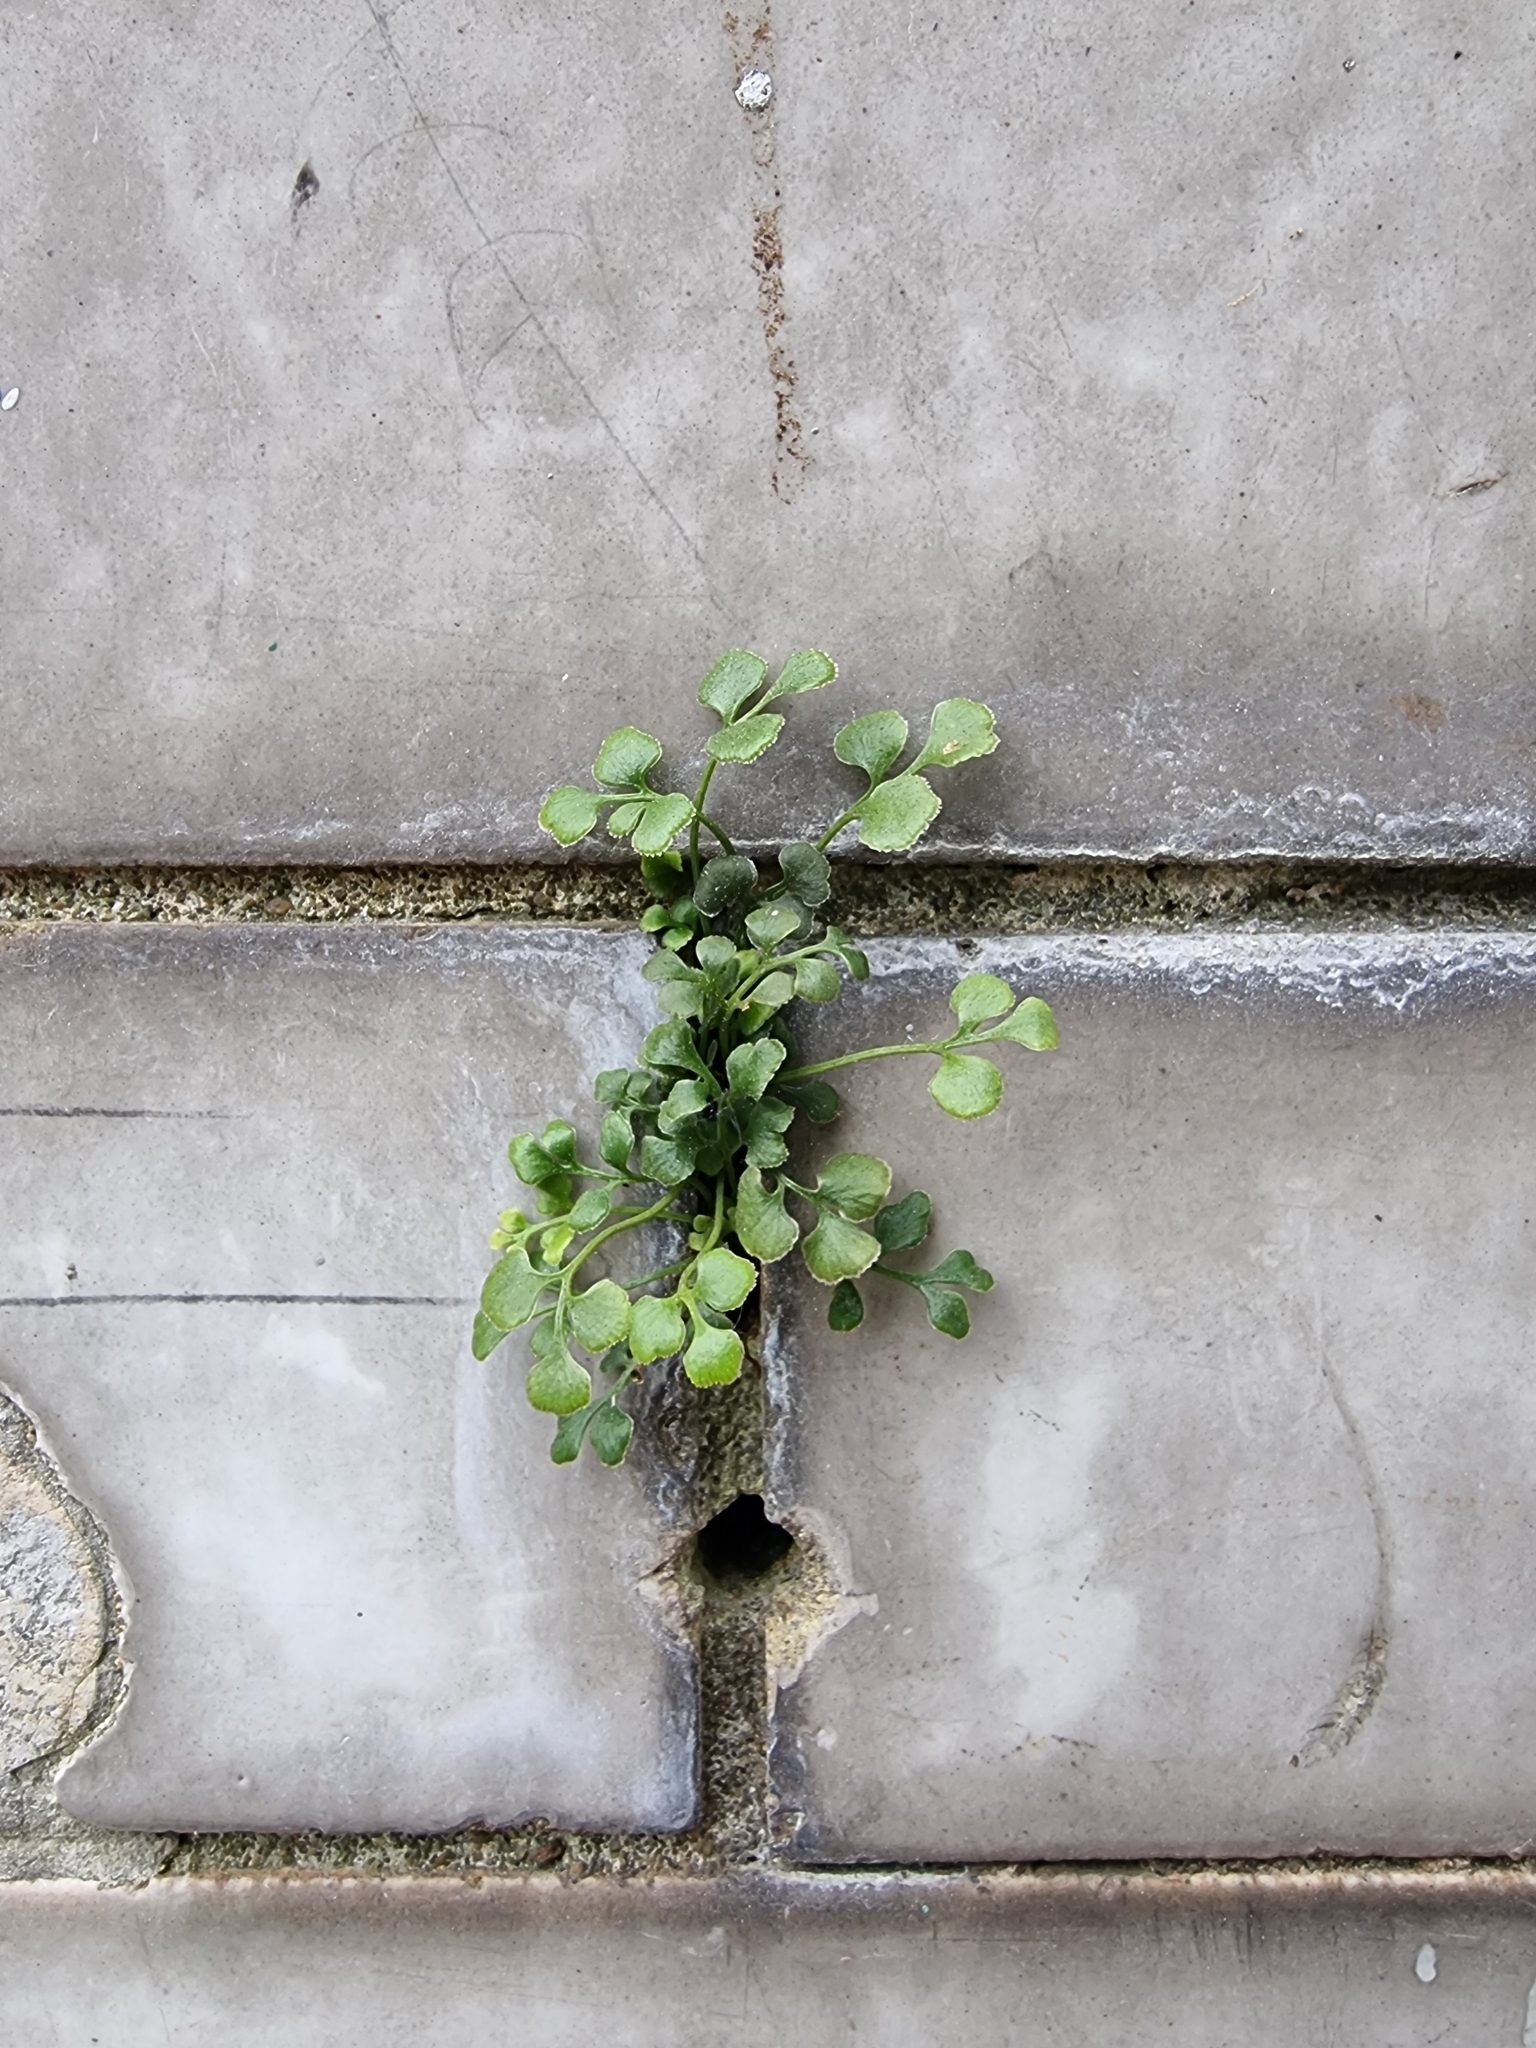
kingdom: Plantae
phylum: Tracheophyta
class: Polypodiopsida
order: Polypodiales
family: Aspleniaceae
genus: Asplenium
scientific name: Asplenium ruta-muraria
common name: Wall-rue
